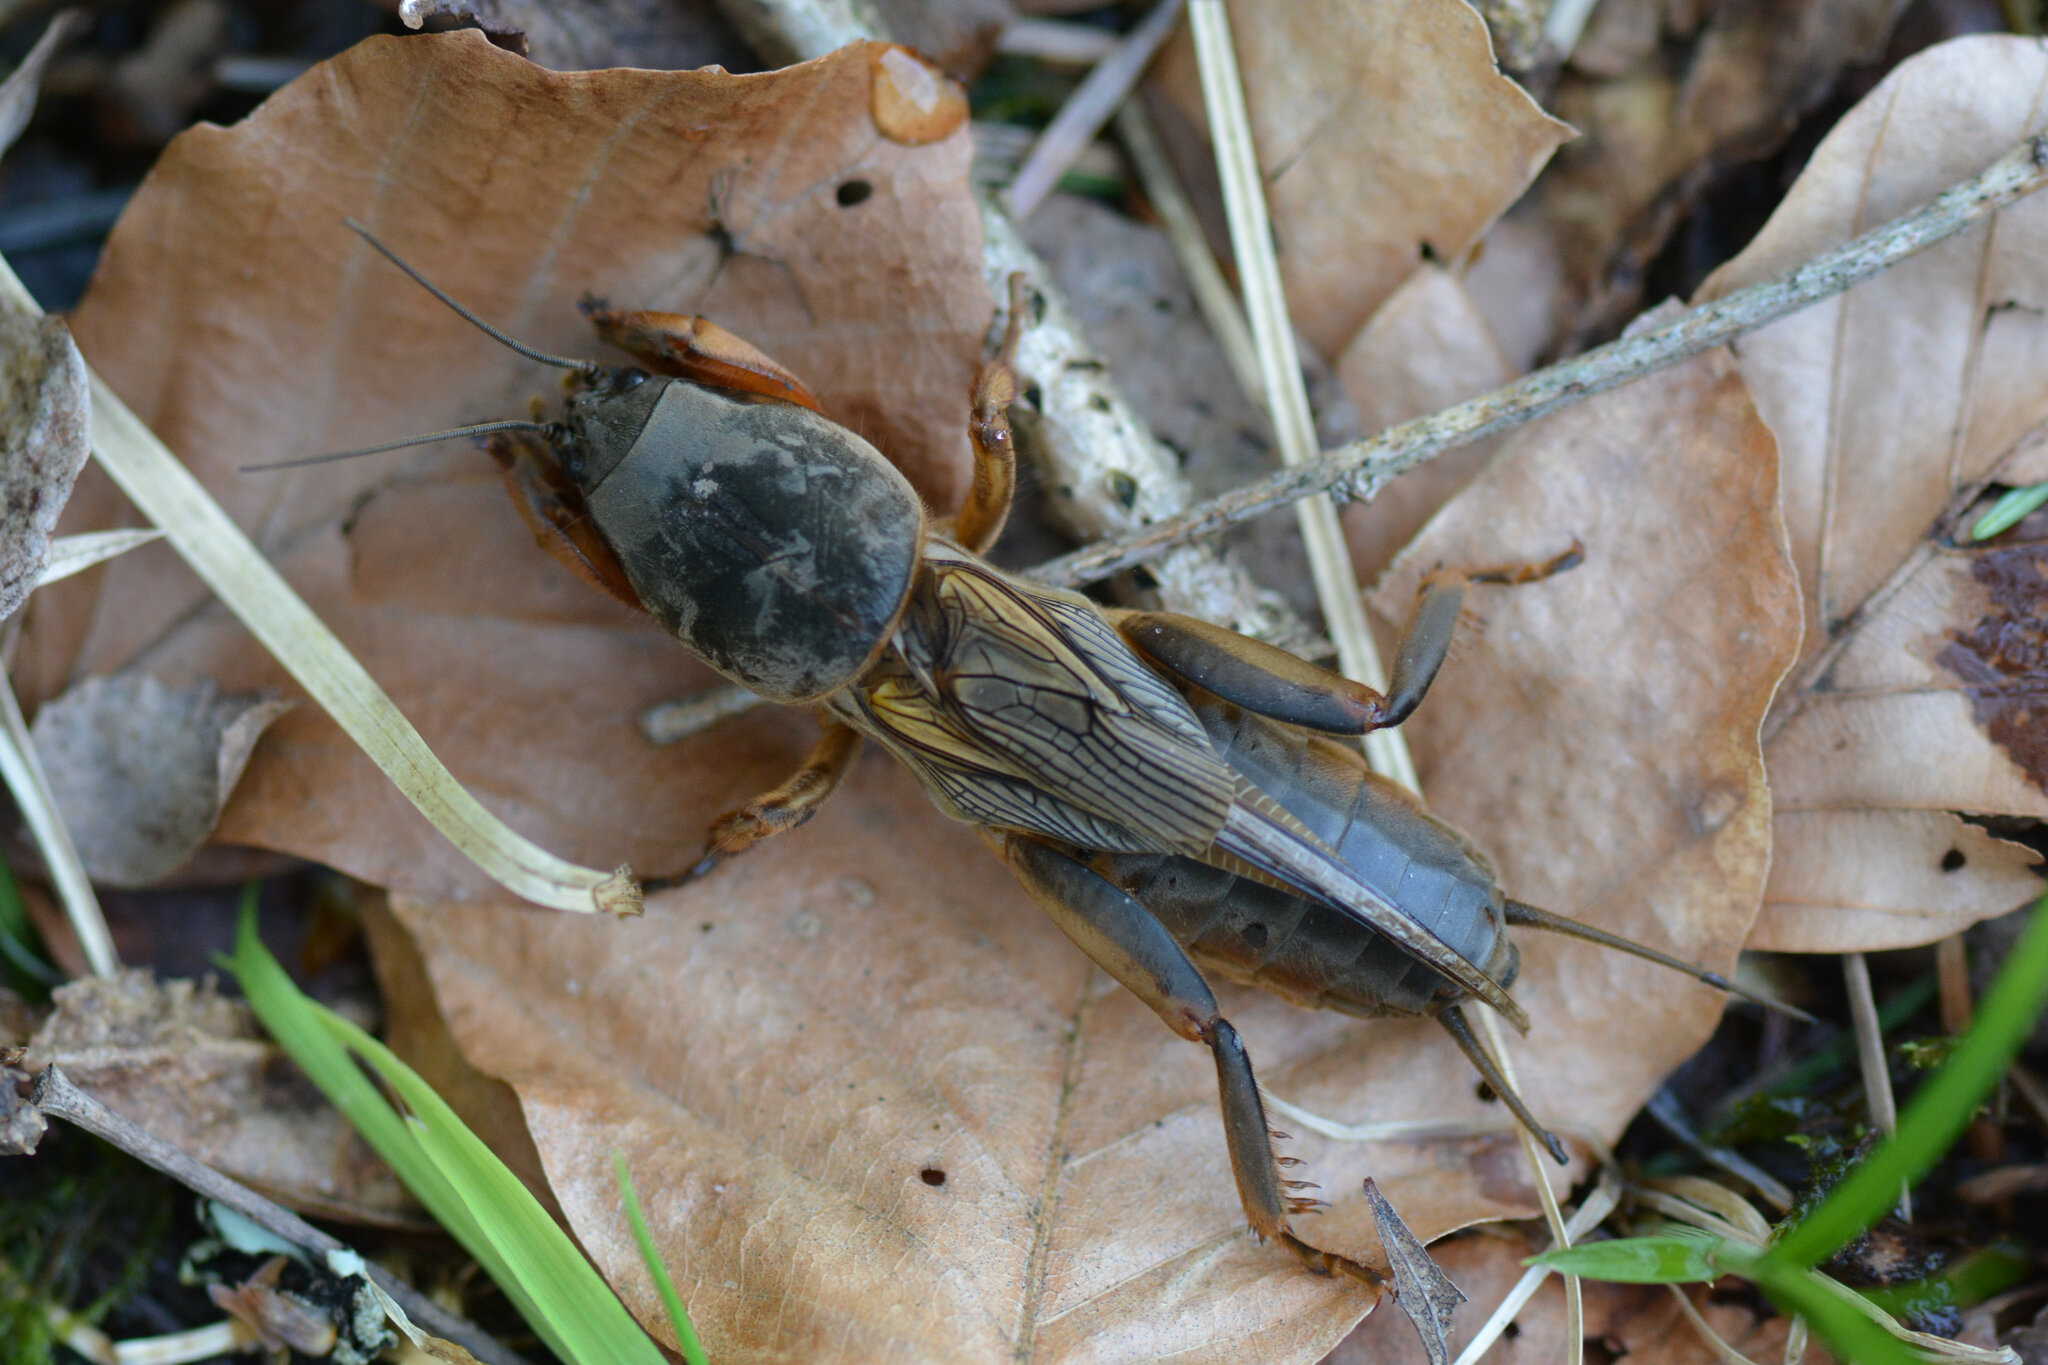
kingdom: Animalia
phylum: Arthropoda
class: Insecta
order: Orthoptera
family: Gryllotalpidae
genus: Gryllotalpa
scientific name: Gryllotalpa gryllotalpa
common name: European mole cricket
